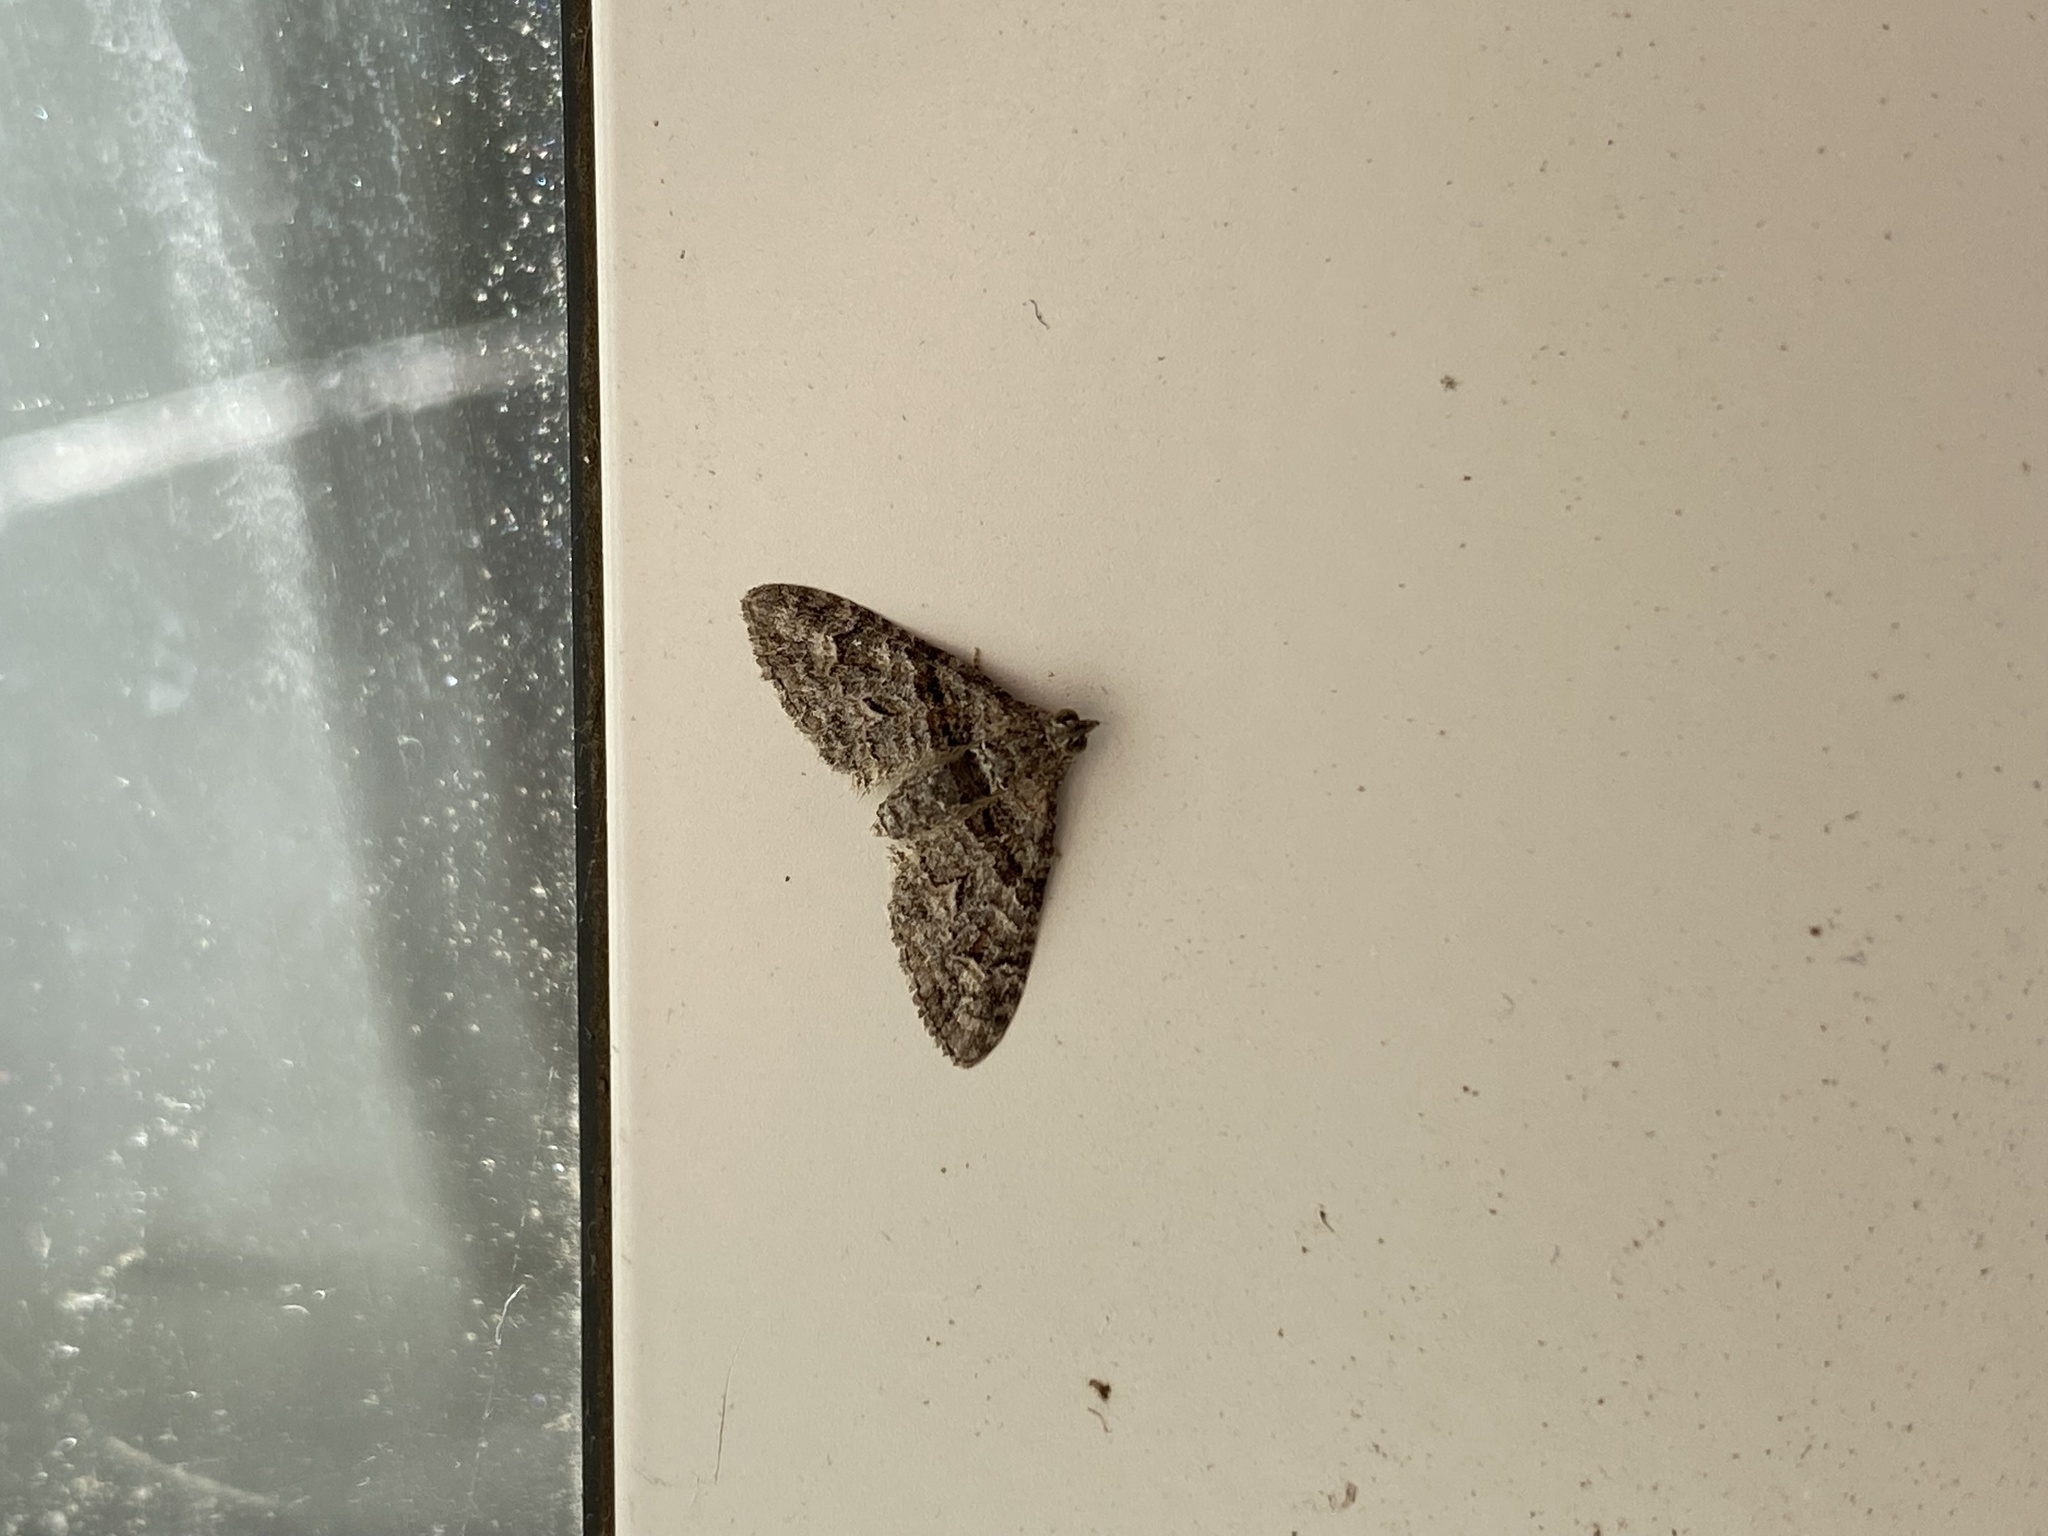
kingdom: Animalia
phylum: Arthropoda
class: Insecta
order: Lepidoptera
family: Geometridae
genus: Phrissogonus
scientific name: Phrissogonus laticostata
